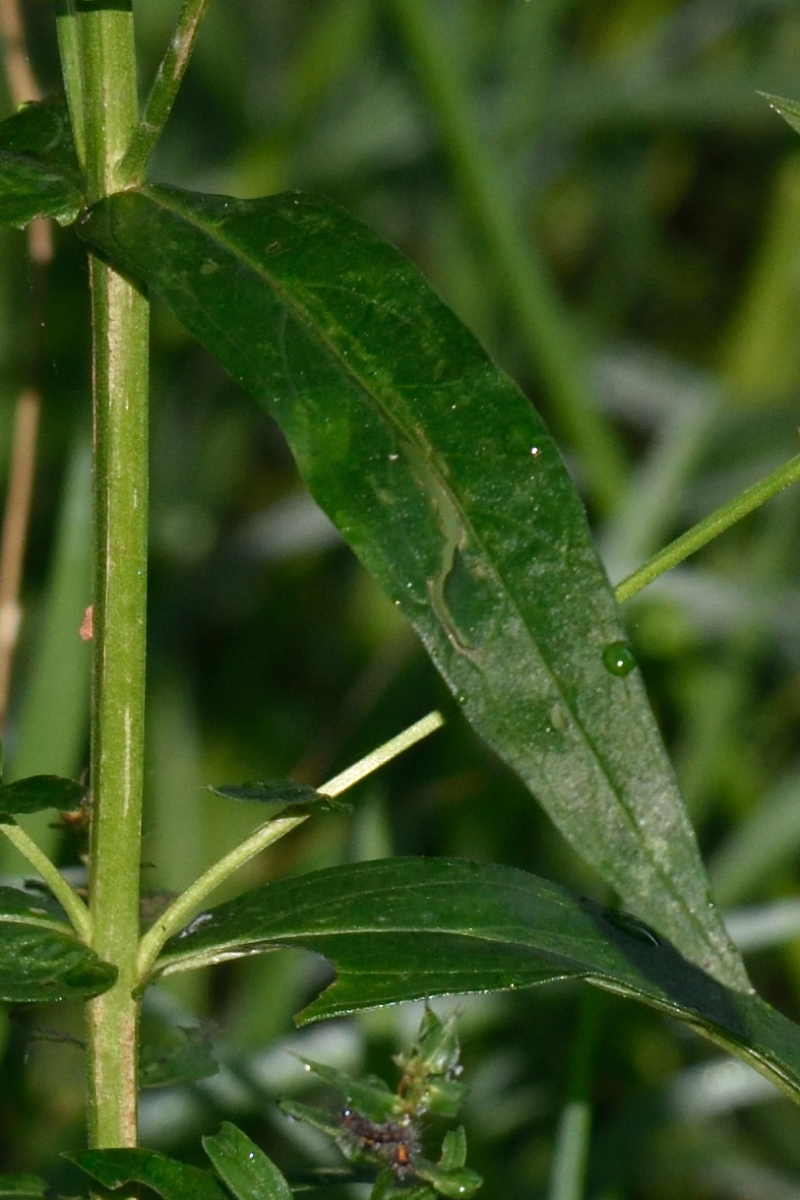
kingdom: Plantae
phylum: Tracheophyta
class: Magnoliopsida
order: Myrtales
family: Lythraceae
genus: Lythrum
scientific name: Lythrum salicaria
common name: Purple loosestrife
